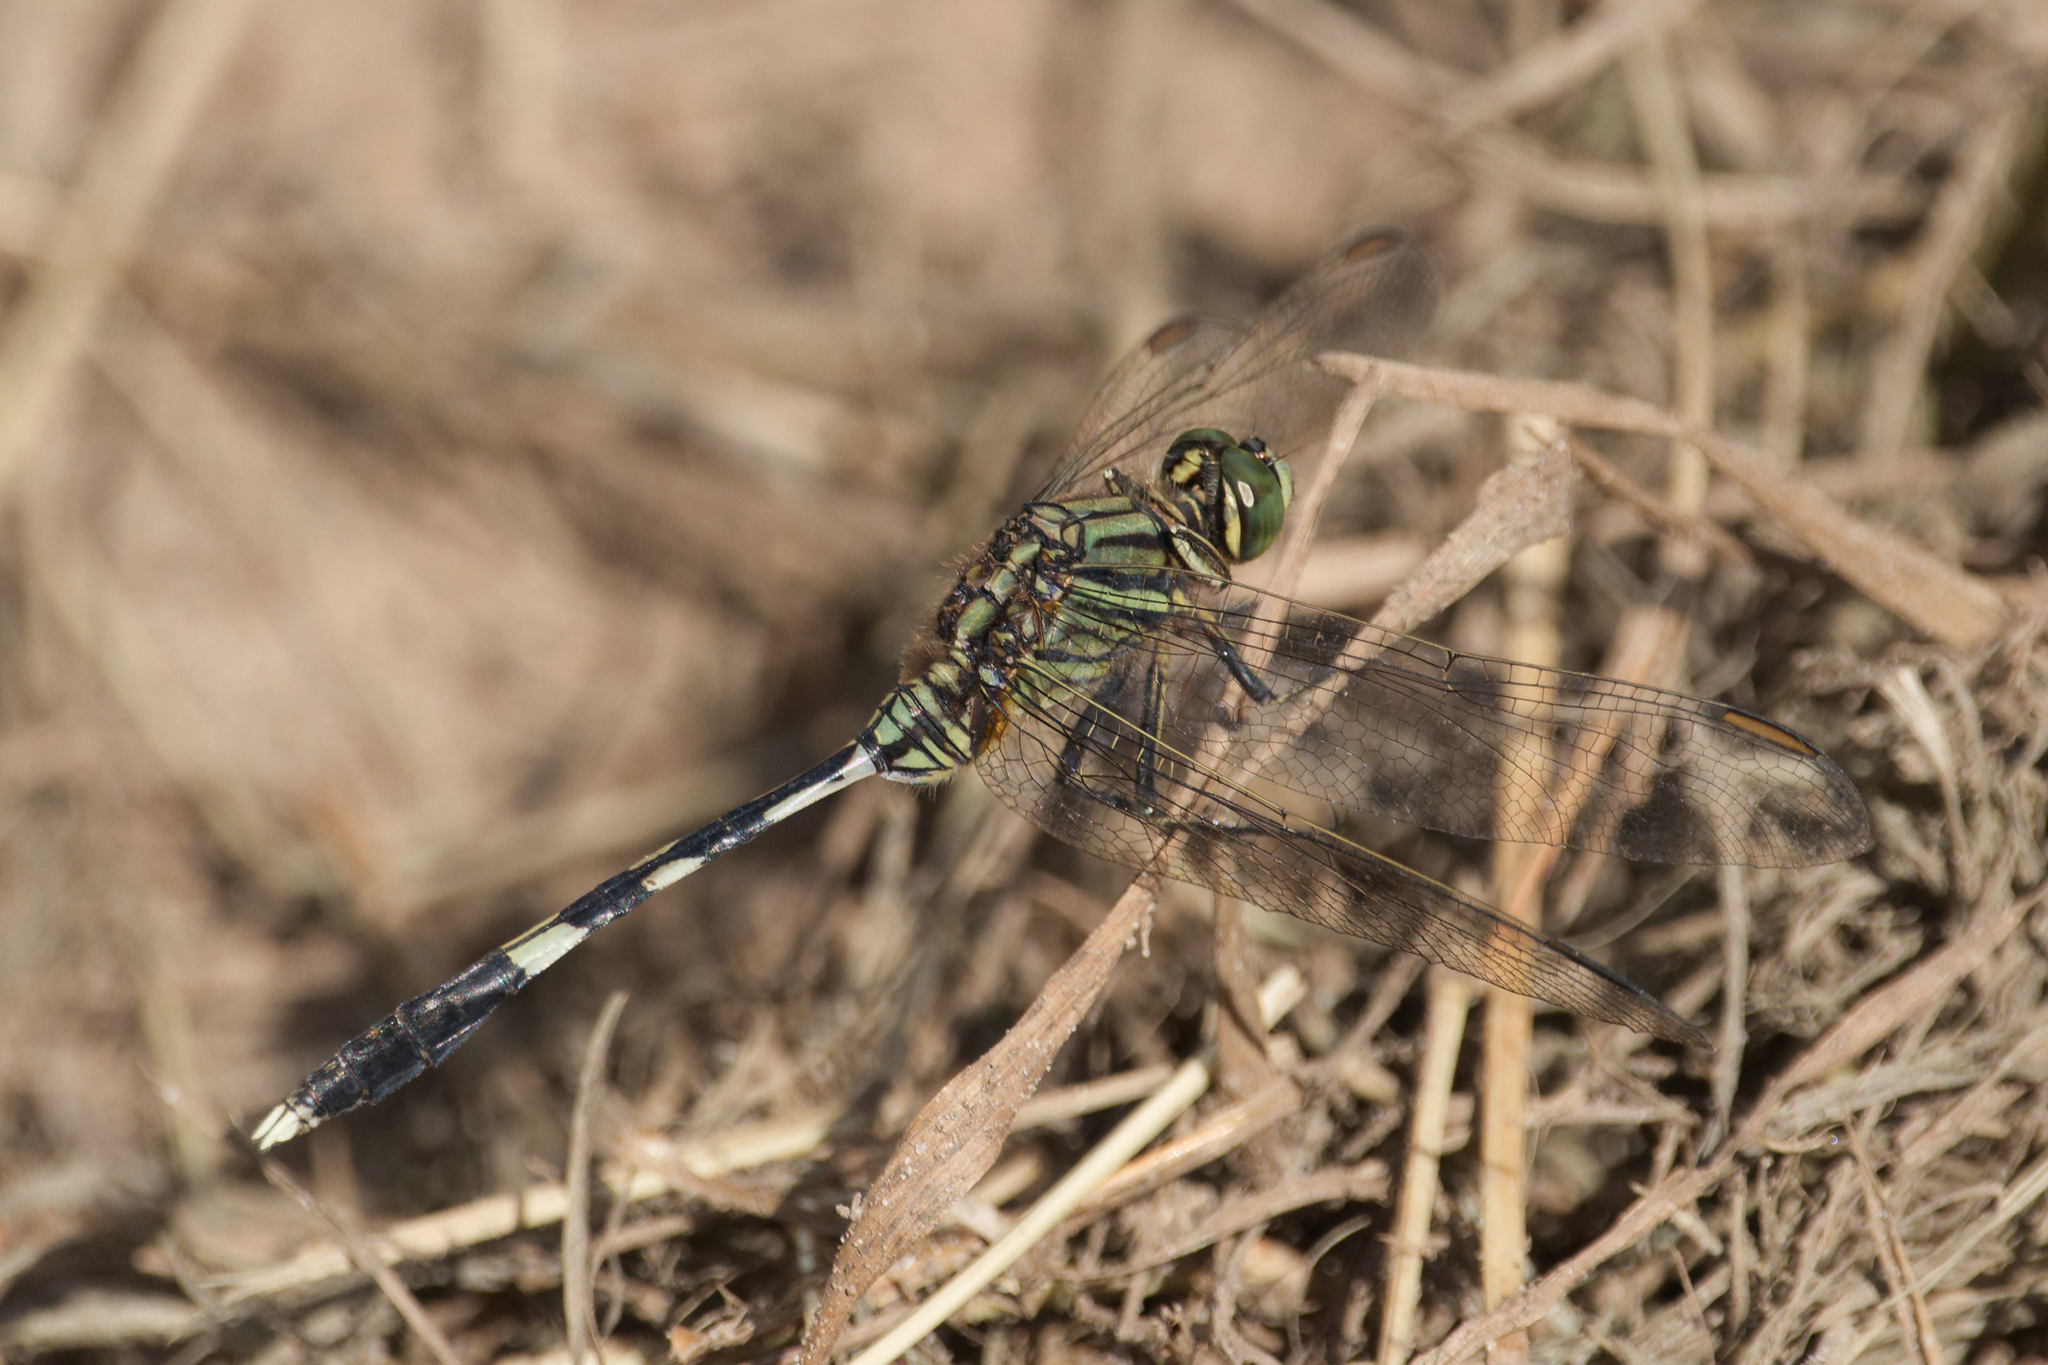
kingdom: Animalia
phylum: Arthropoda
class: Insecta
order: Odonata
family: Libellulidae
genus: Orthetrum
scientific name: Orthetrum sabina
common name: Slender skimmer
